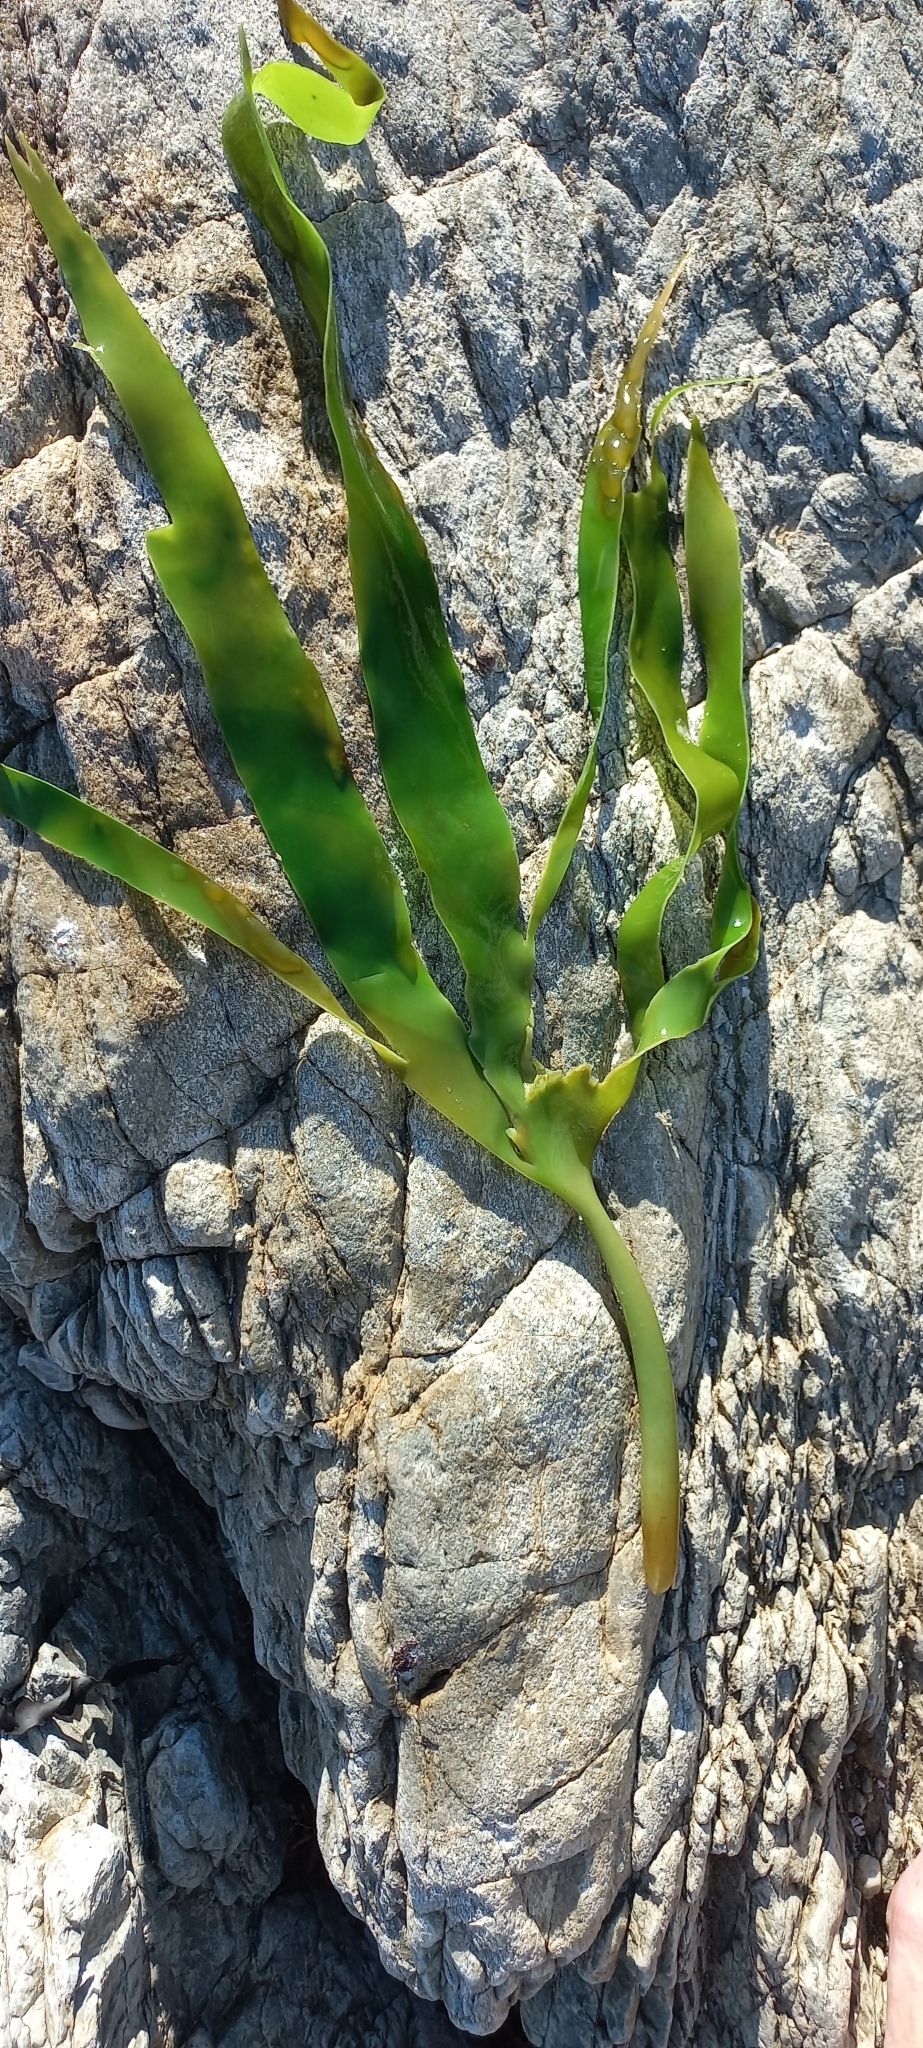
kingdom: Chromista
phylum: Ochrophyta
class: Phaeophyceae
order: Laminariales
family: Laminariaceae
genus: Laminaria
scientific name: Laminaria pallida
